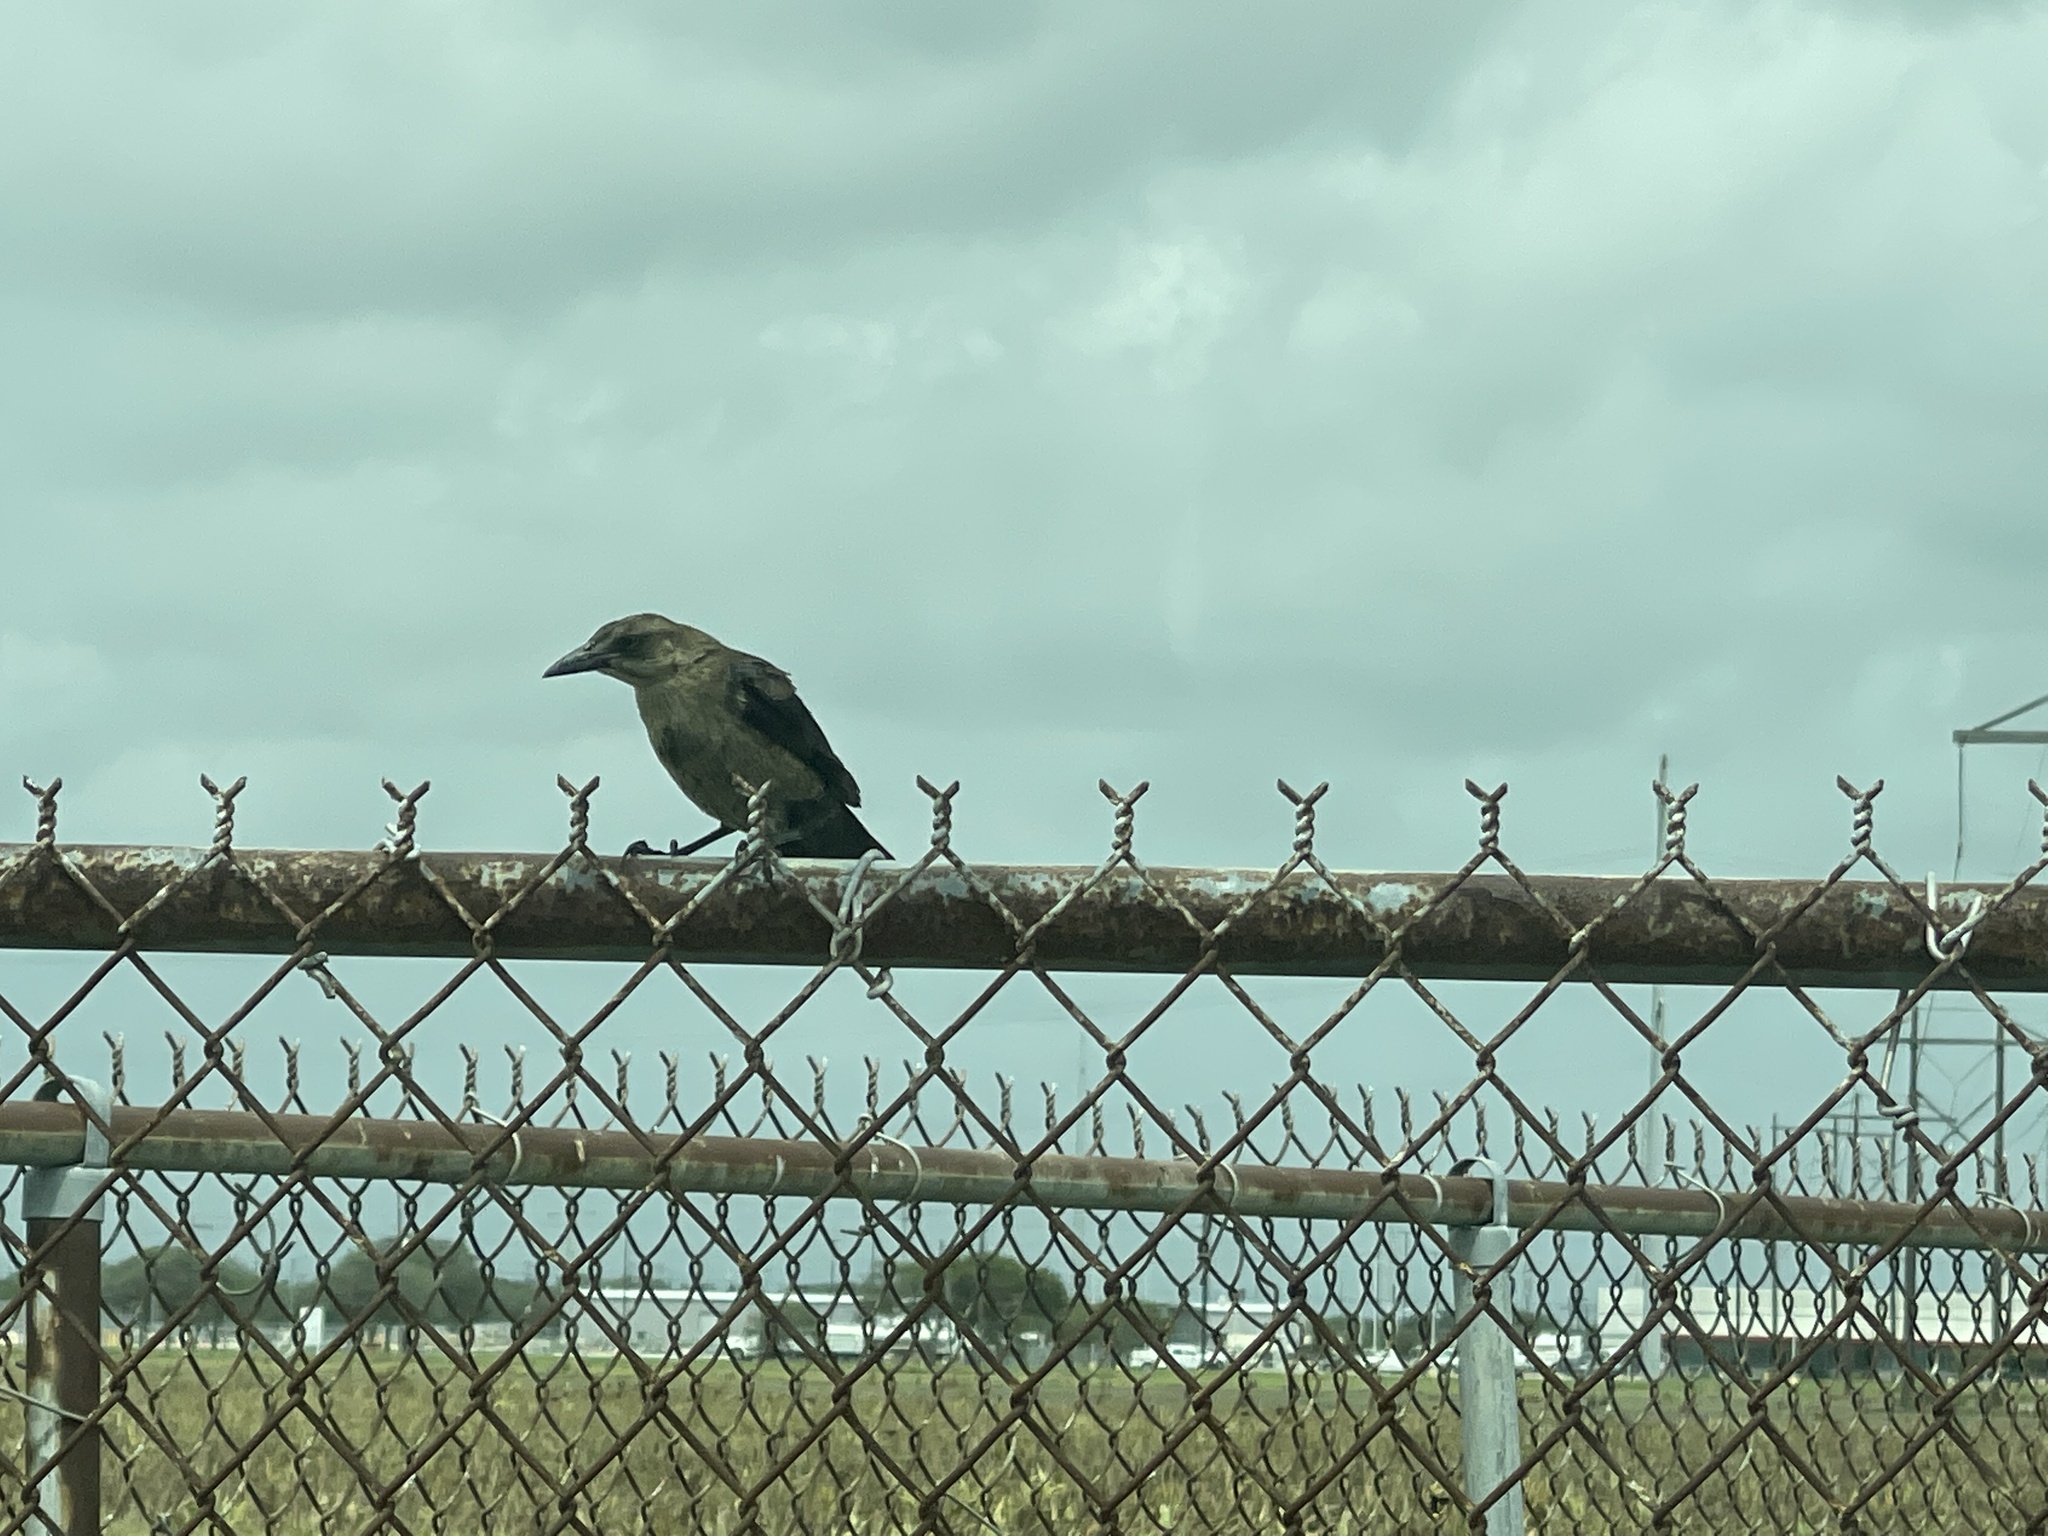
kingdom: Animalia
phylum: Chordata
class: Aves
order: Passeriformes
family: Icteridae
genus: Quiscalus
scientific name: Quiscalus mexicanus
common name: Great-tailed grackle
